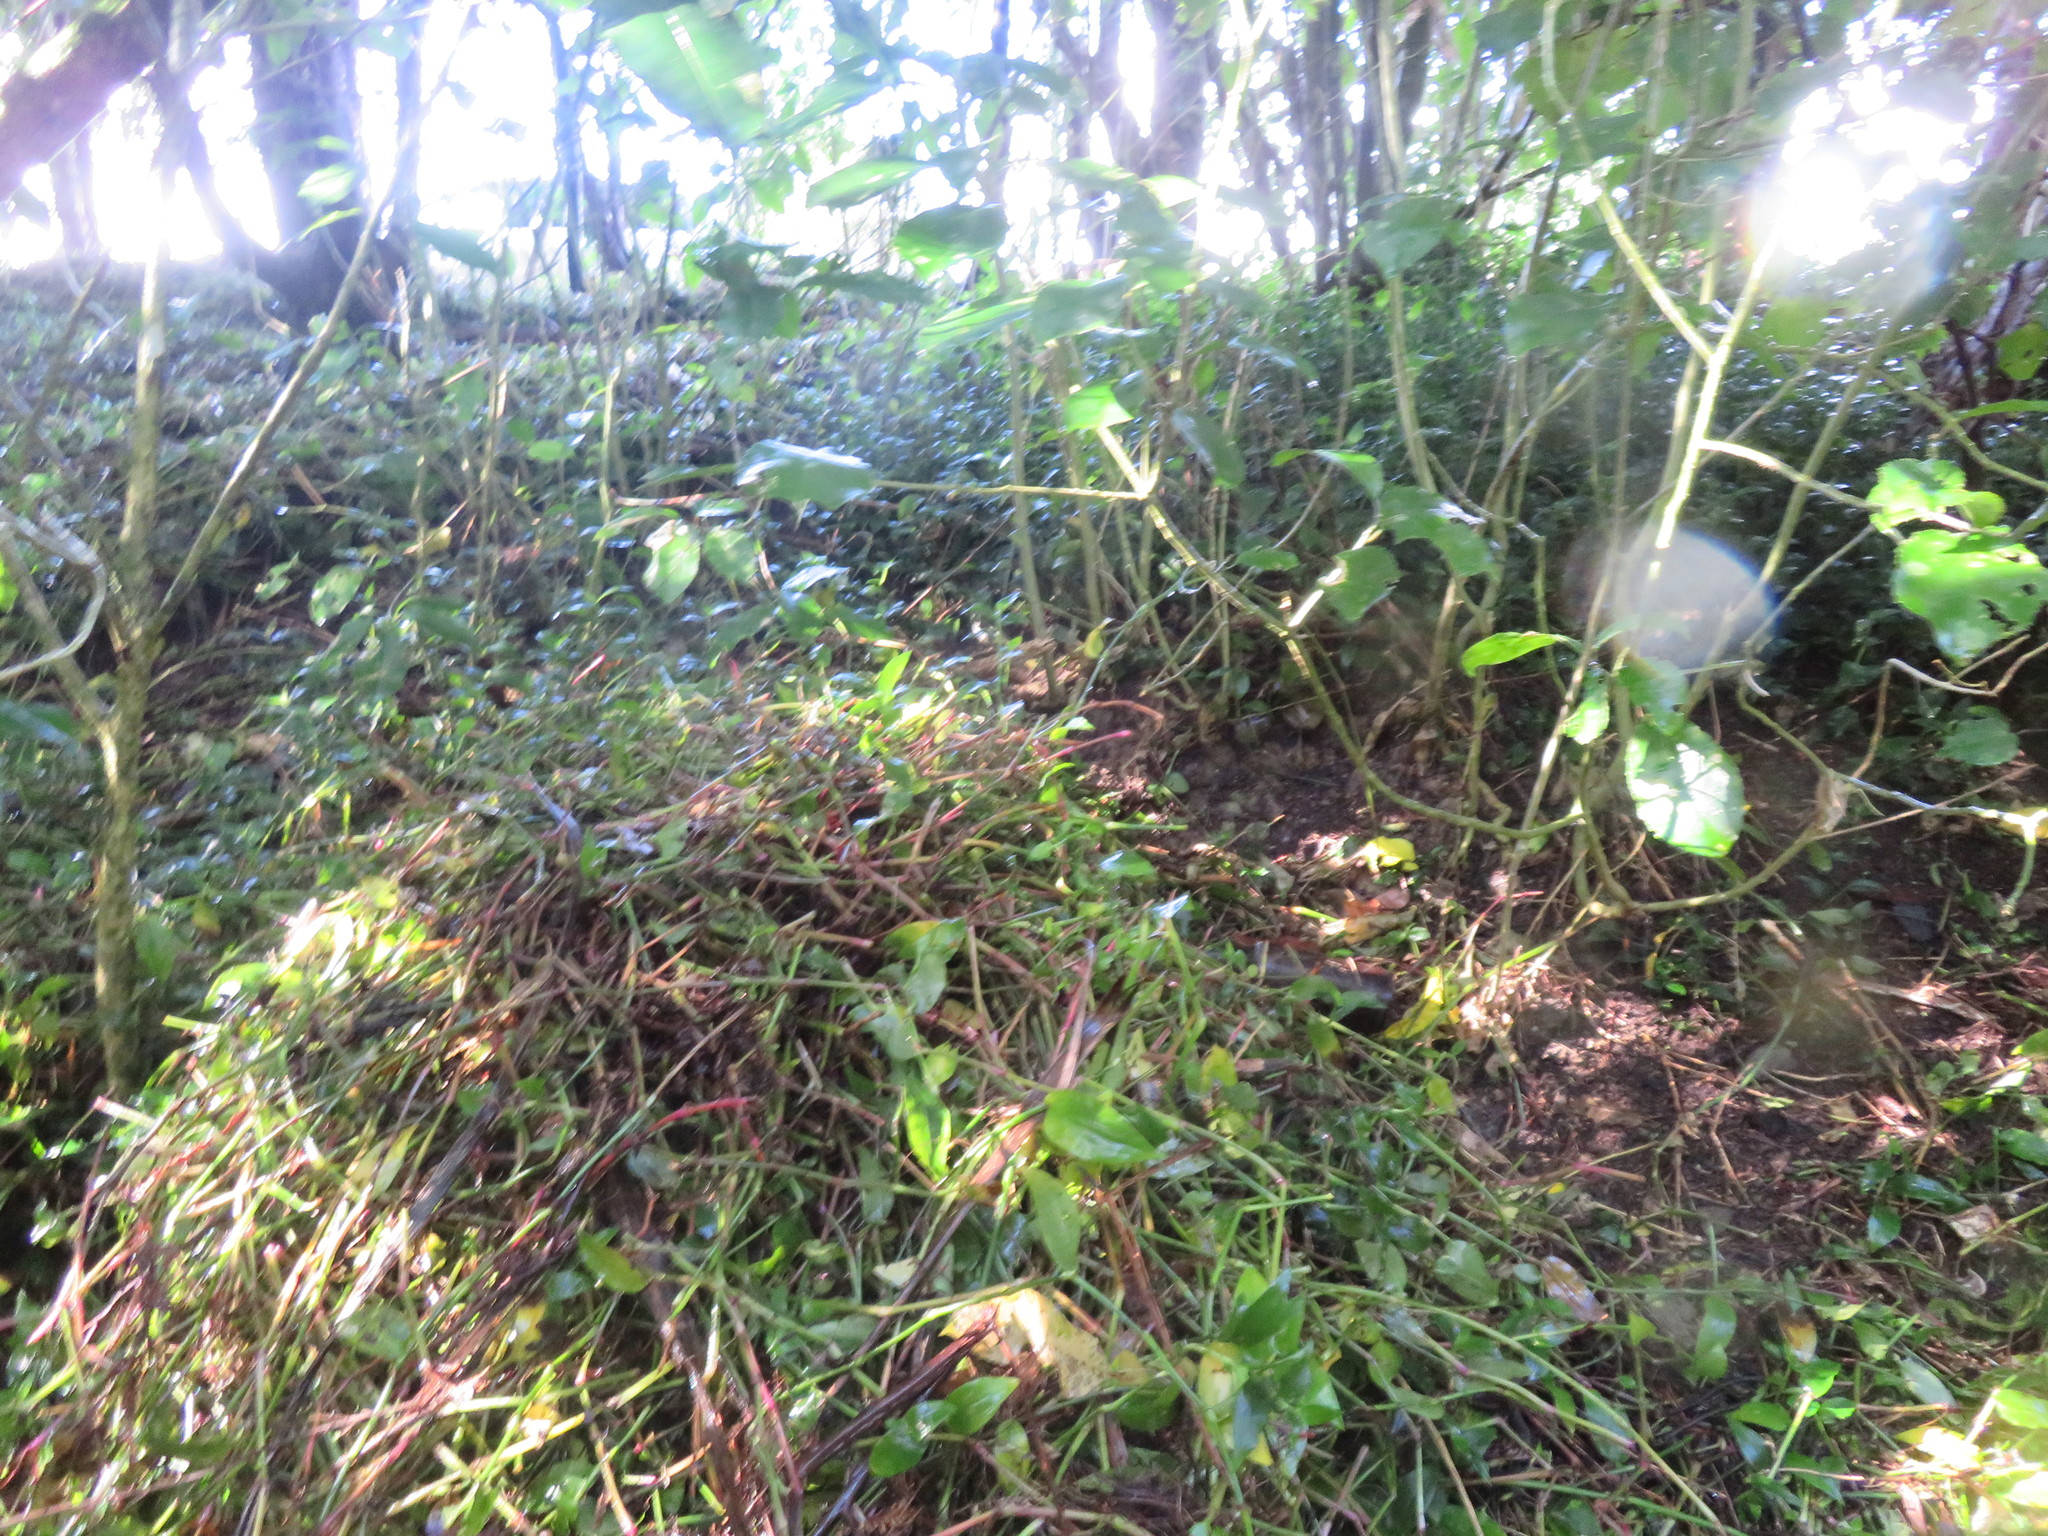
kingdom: Plantae
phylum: Tracheophyta
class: Liliopsida
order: Commelinales
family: Commelinaceae
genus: Tradescantia
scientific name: Tradescantia fluminensis
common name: Wandering-jew
